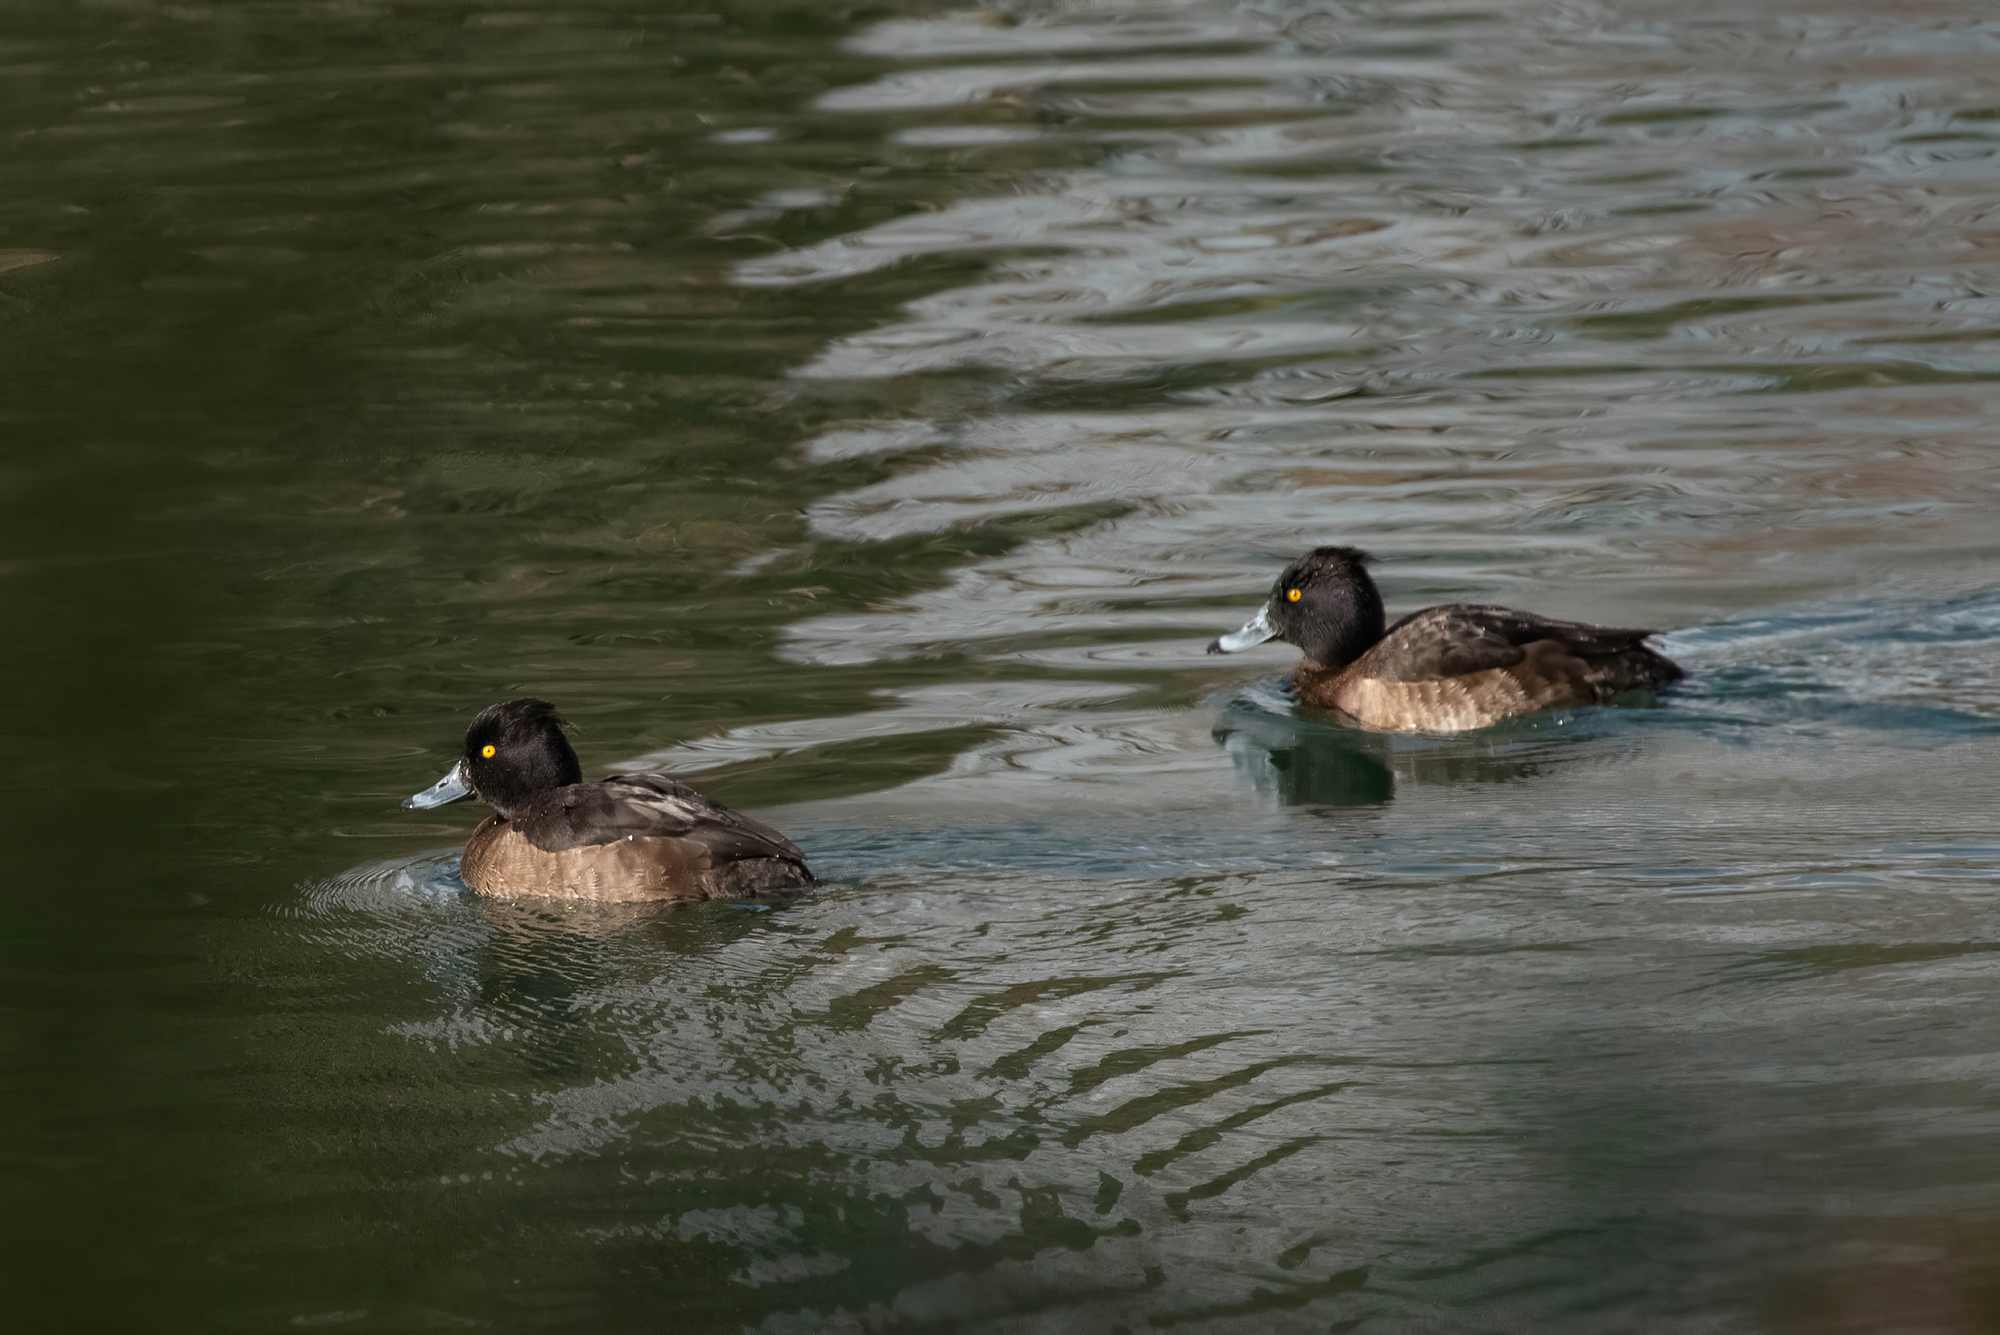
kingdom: Animalia
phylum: Chordata
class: Aves
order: Anseriformes
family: Anatidae
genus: Aythya
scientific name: Aythya fuligula
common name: Tufted duck
